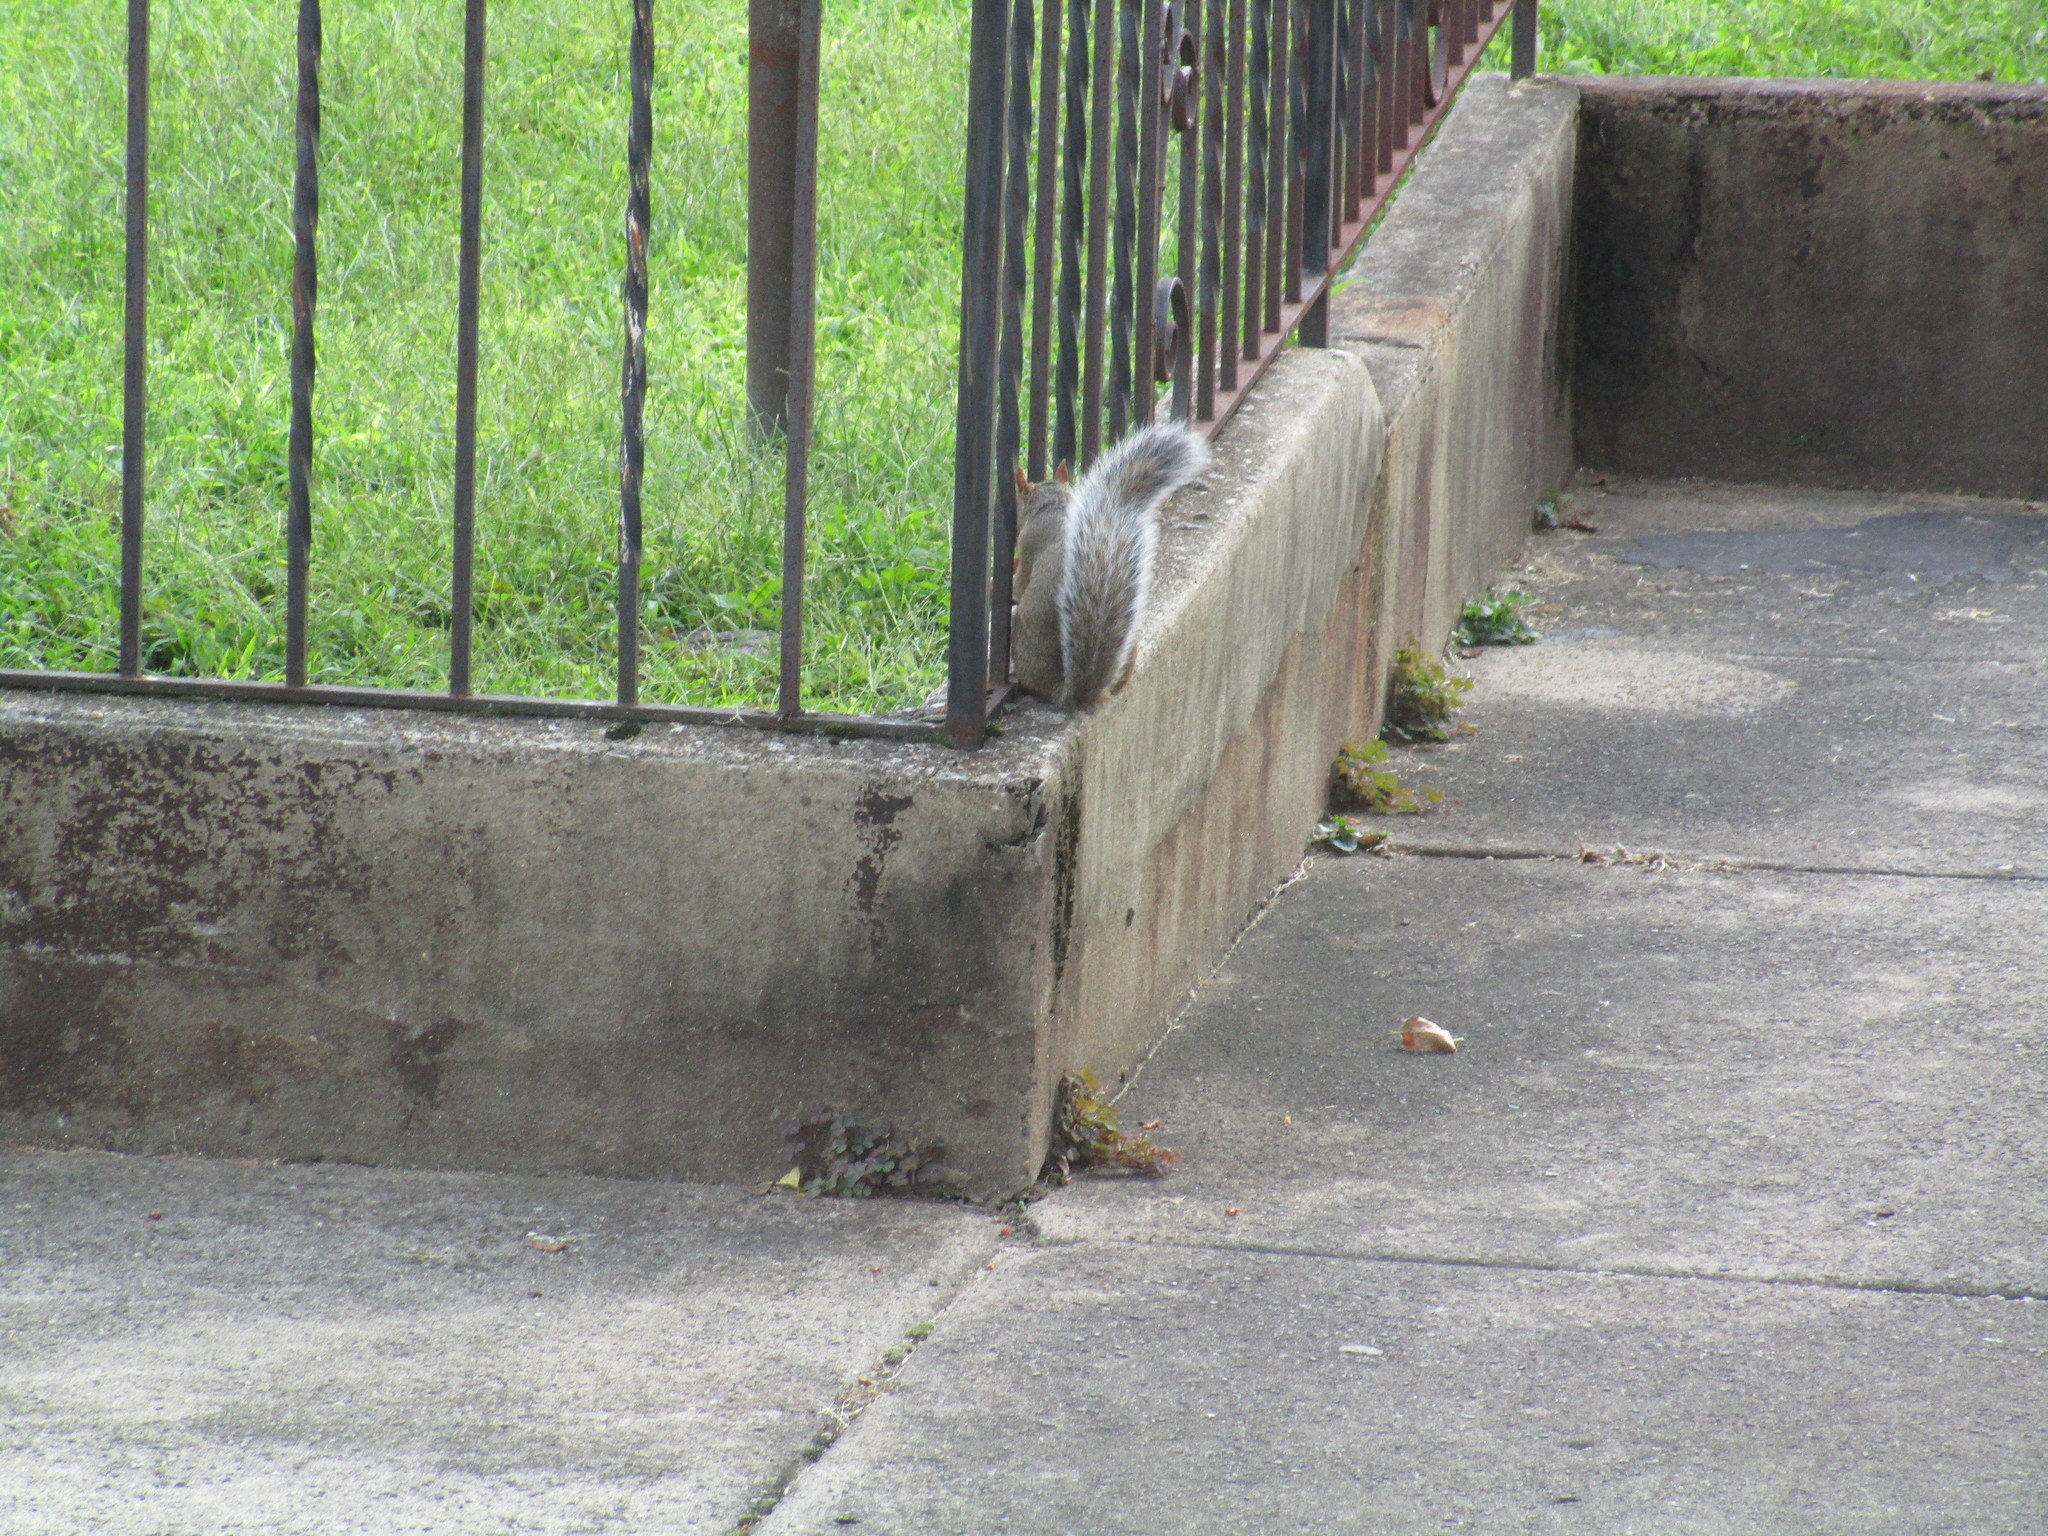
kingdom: Animalia
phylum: Chordata
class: Mammalia
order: Rodentia
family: Sciuridae
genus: Sciurus
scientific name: Sciurus carolinensis
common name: Eastern gray squirrel
